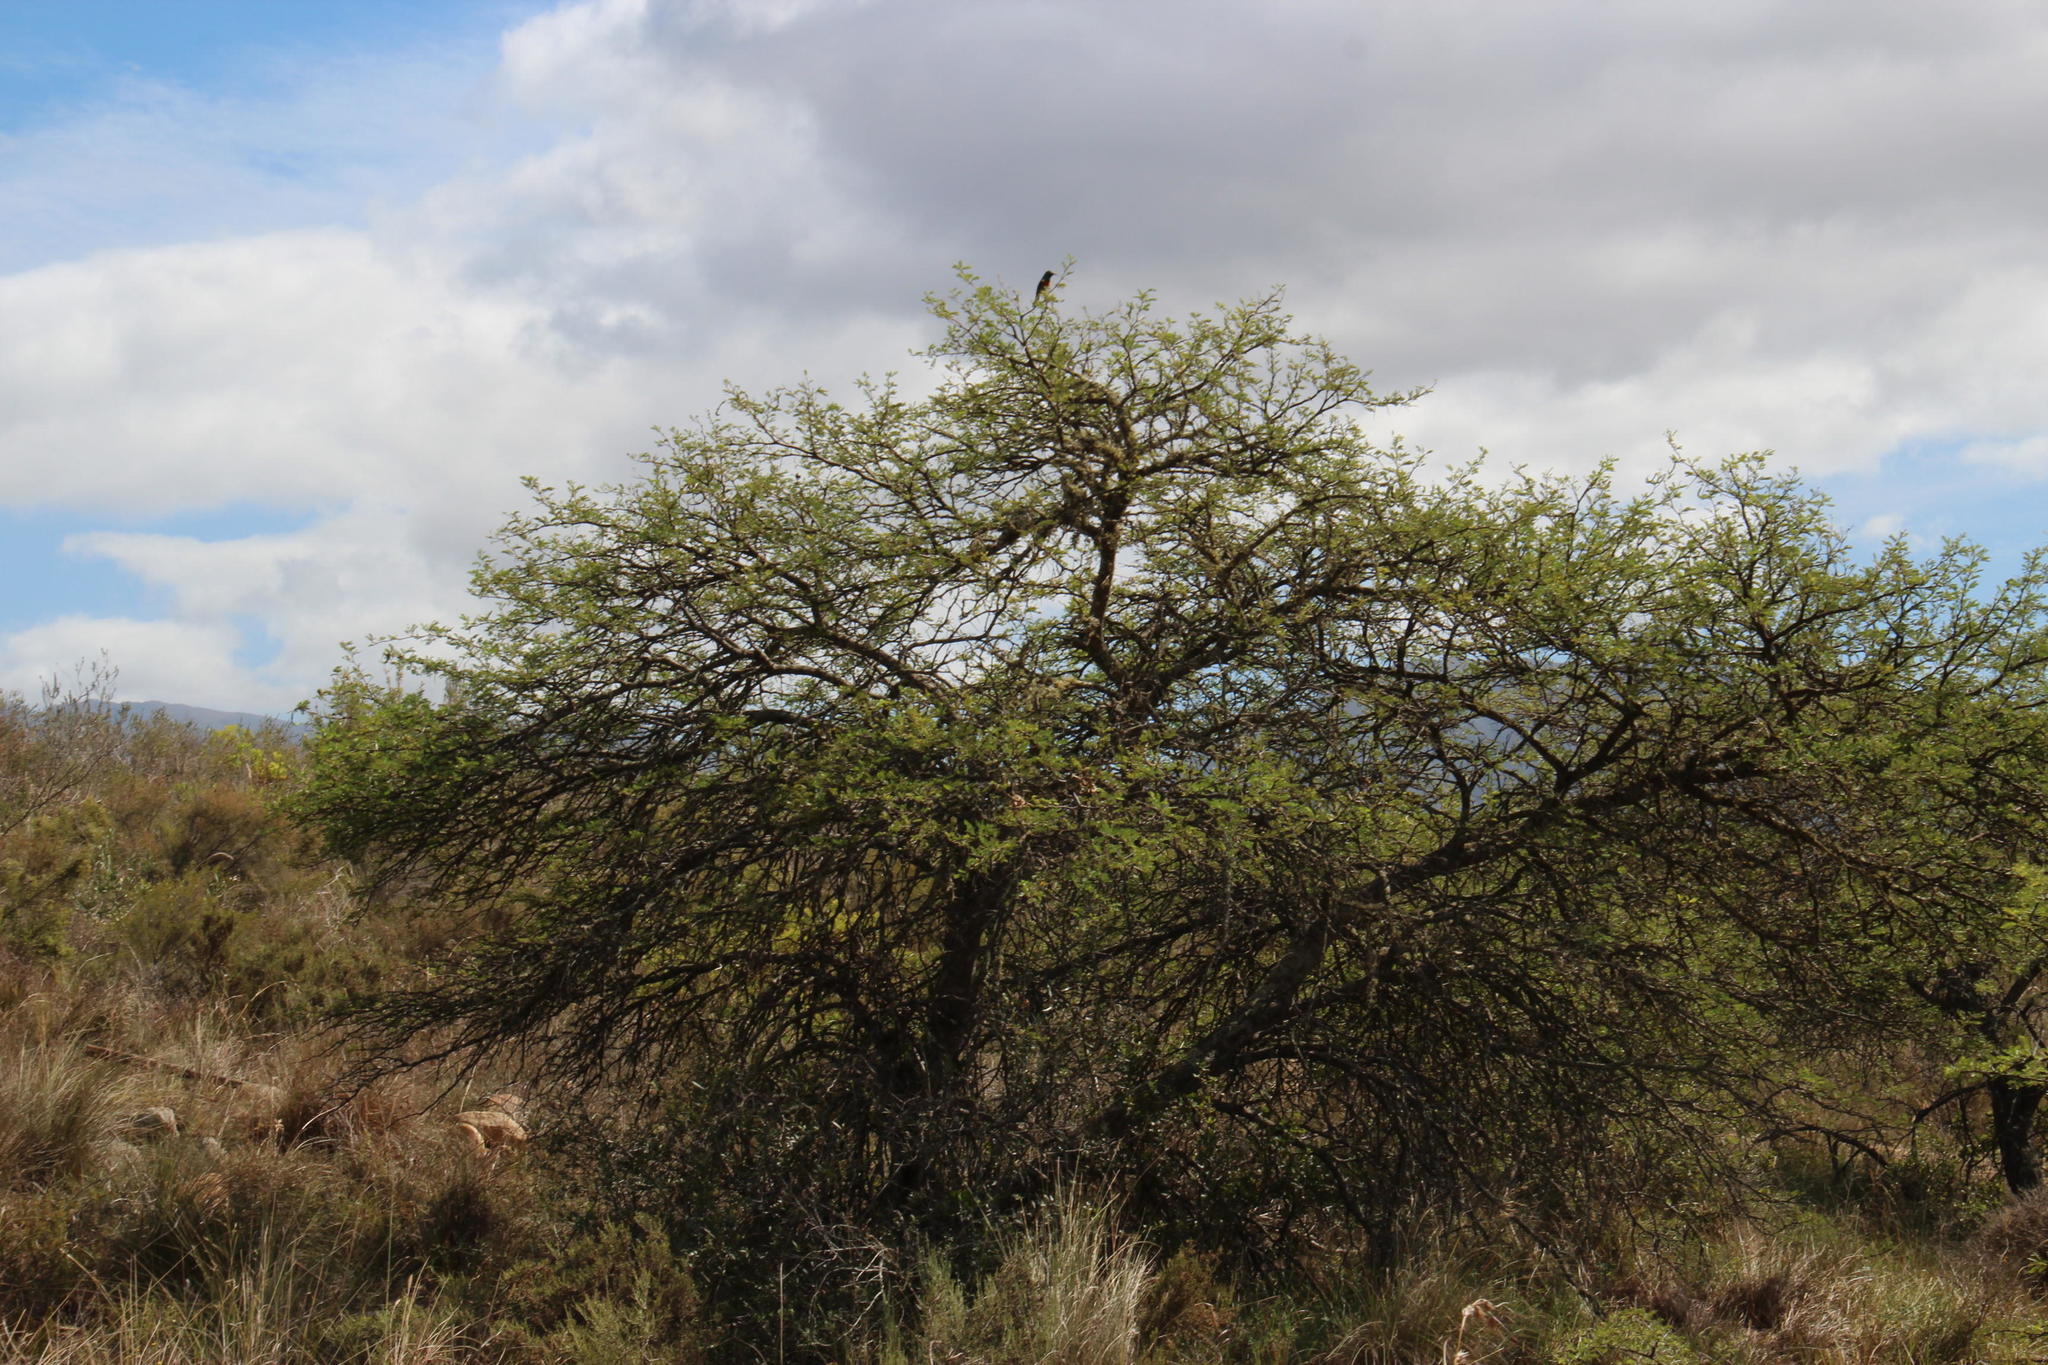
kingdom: Plantae
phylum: Tracheophyta
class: Magnoliopsida
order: Fabales
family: Fabaceae
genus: Vachellia
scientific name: Vachellia karroo
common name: Sweet thorn
